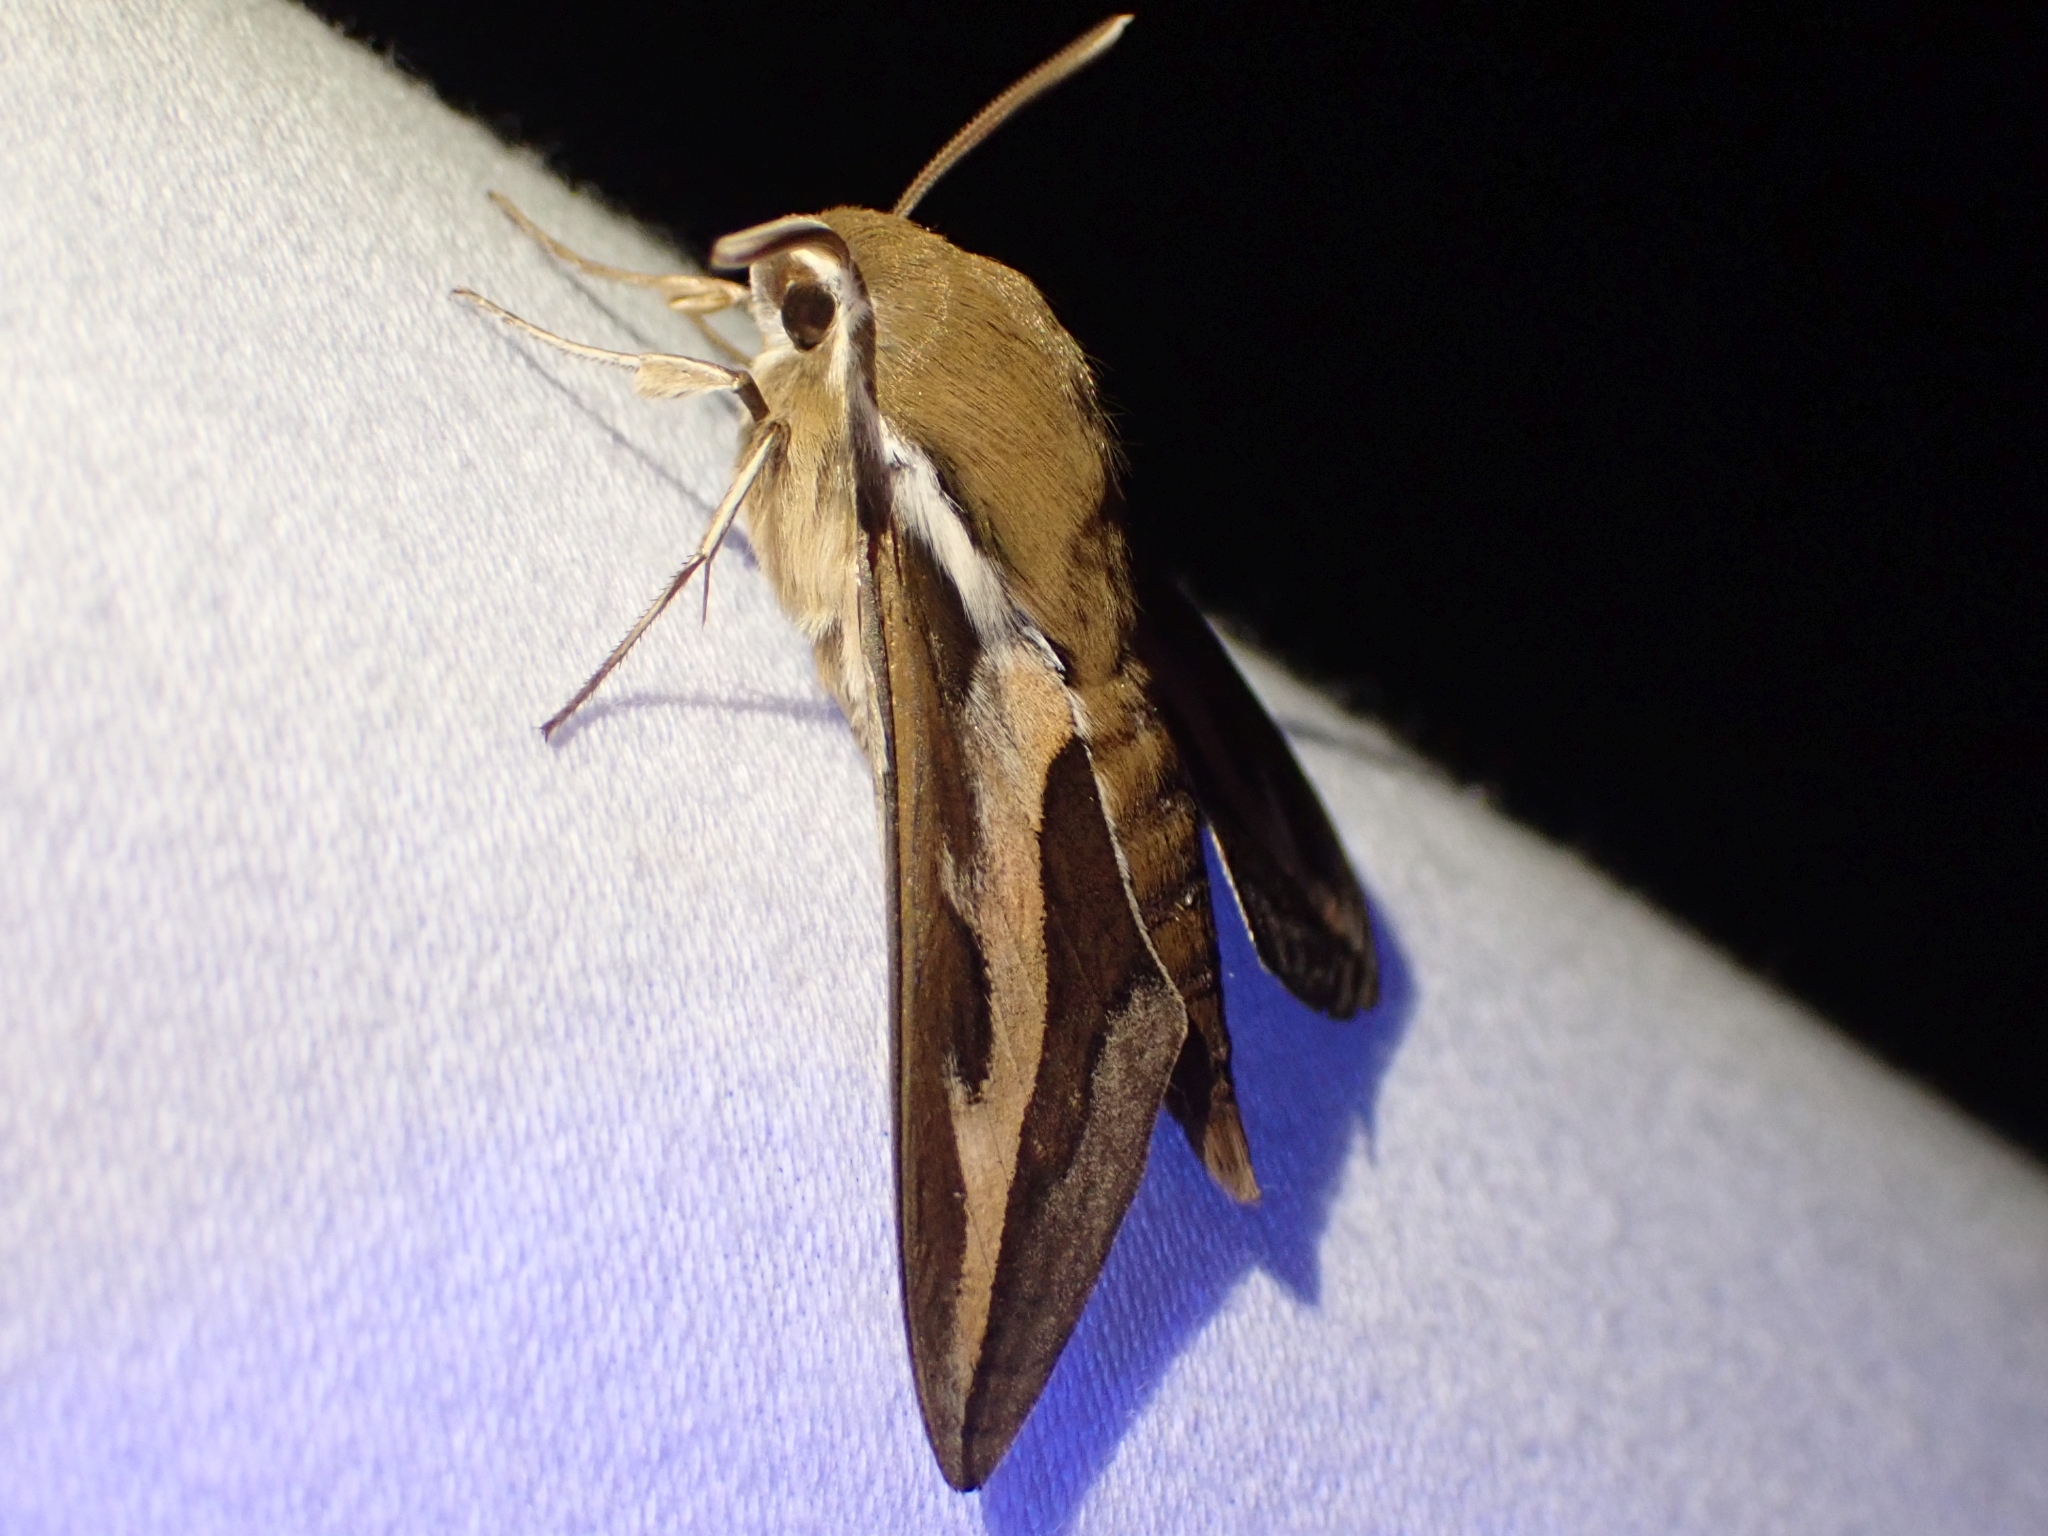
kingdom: Animalia
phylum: Arthropoda
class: Insecta
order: Lepidoptera
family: Sphingidae
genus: Hyles
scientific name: Hyles gallii
